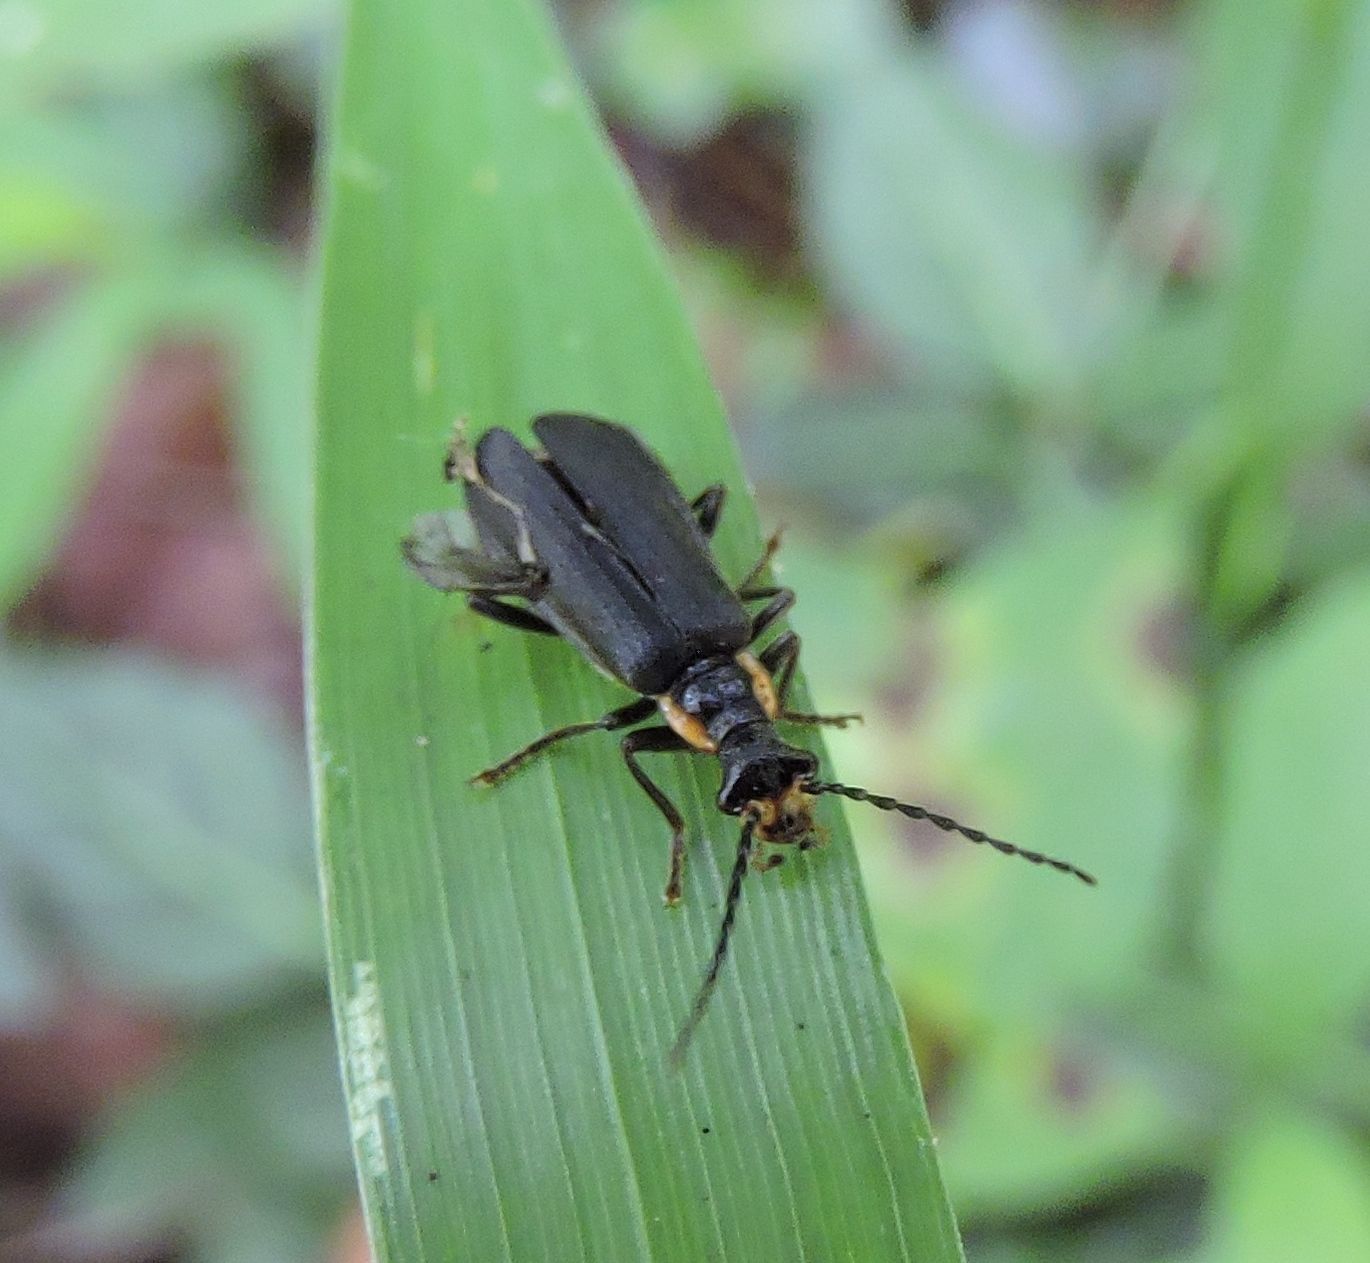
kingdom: Animalia
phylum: Arthropoda
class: Insecta
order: Coleoptera
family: Cantharidae
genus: Podabrus
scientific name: Podabrus rugosulus
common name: Wrinkled soldier beetle
